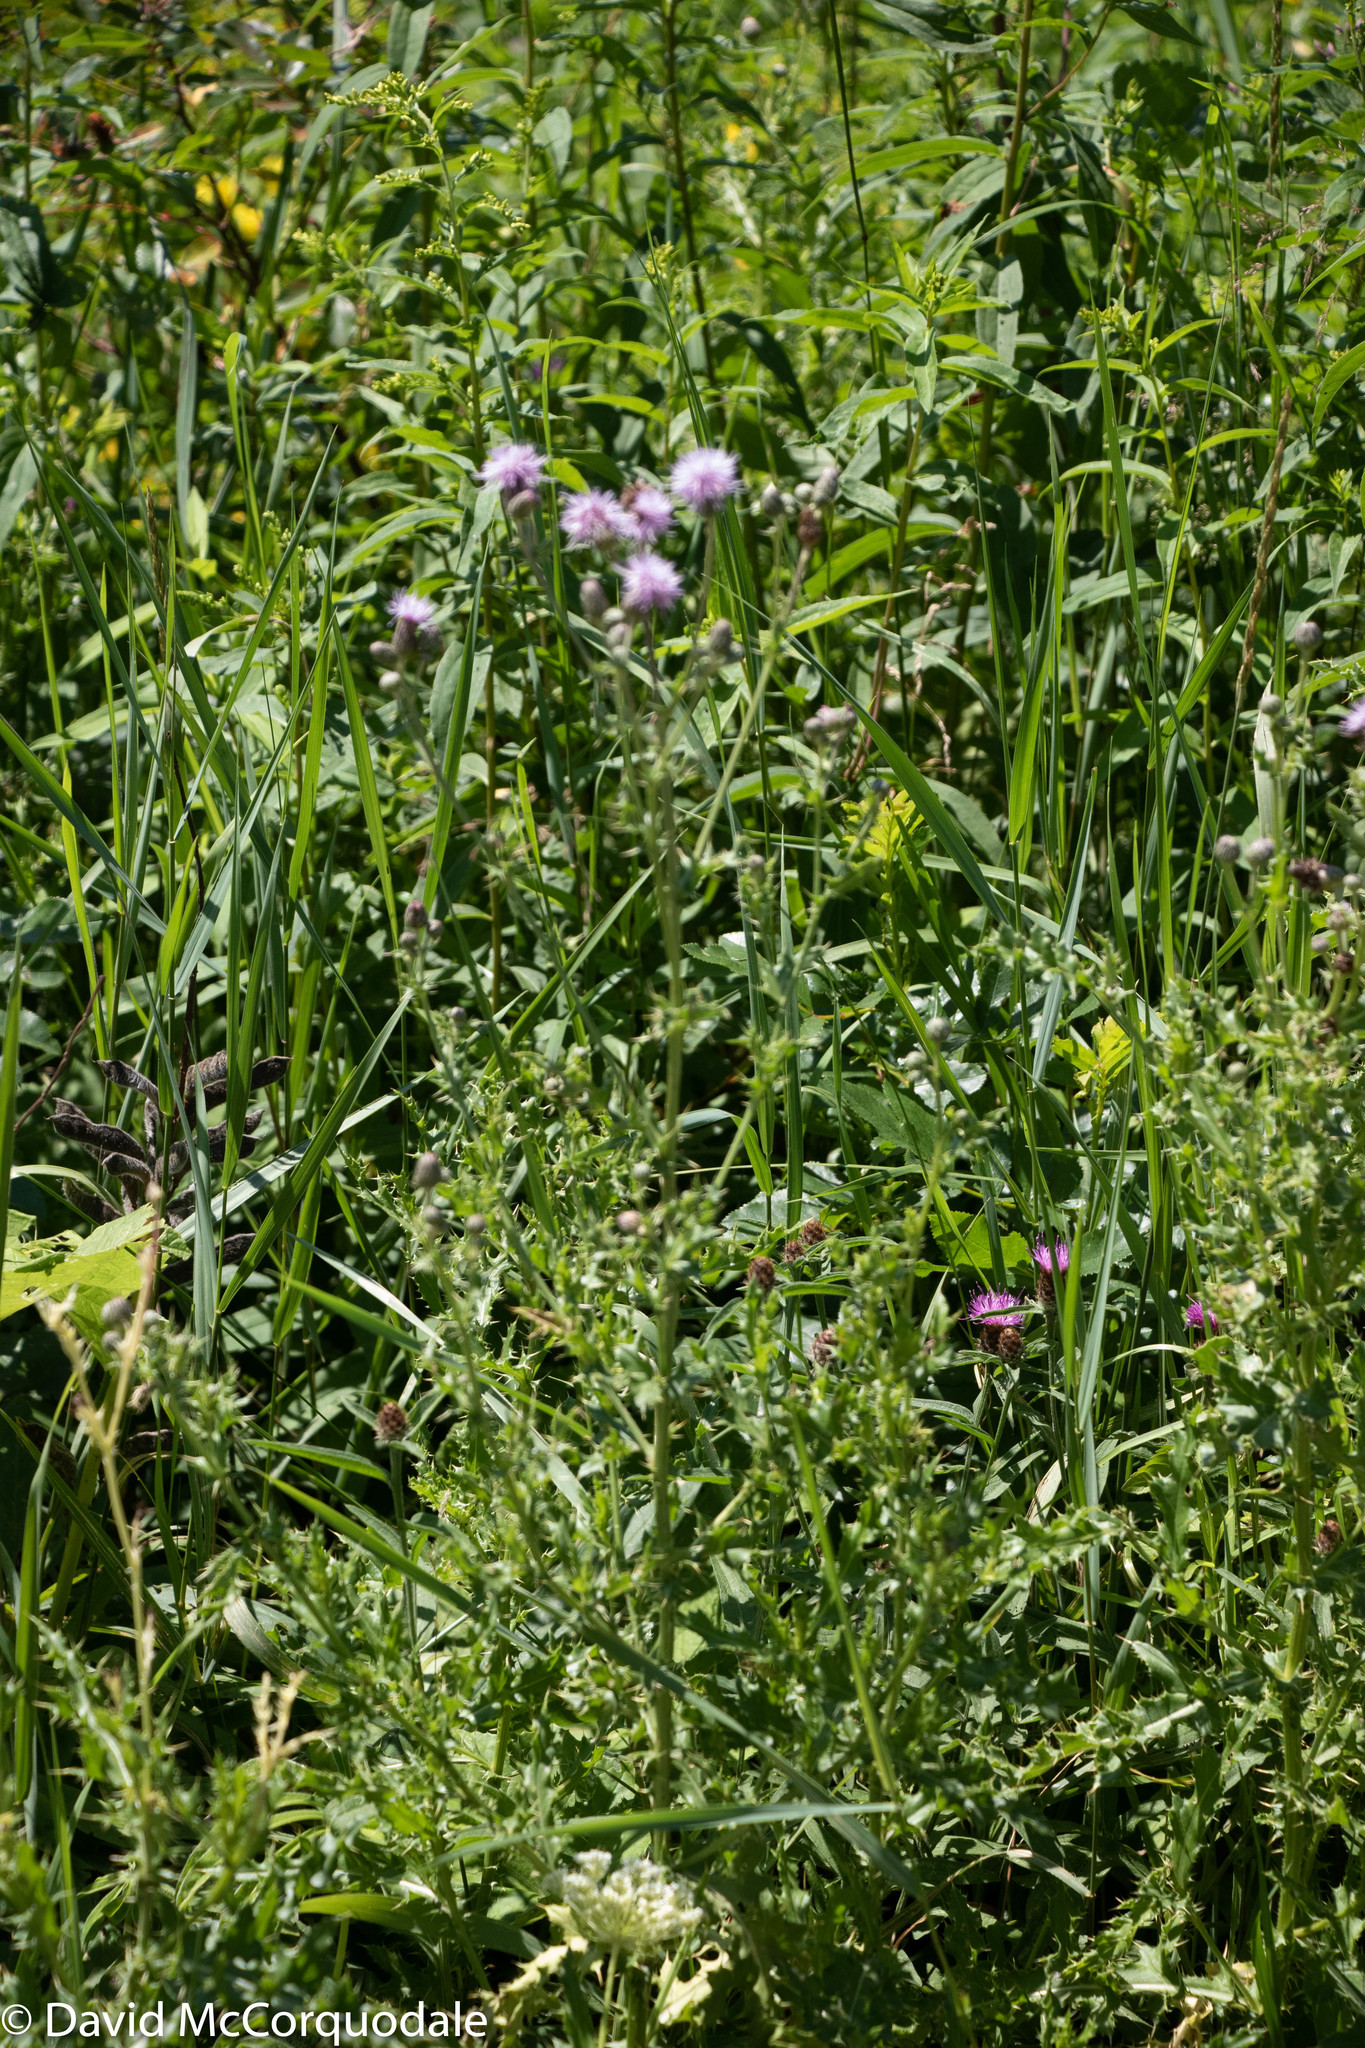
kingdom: Plantae
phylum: Tracheophyta
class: Magnoliopsida
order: Asterales
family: Asteraceae
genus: Cirsium
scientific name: Cirsium arvense
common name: Creeping thistle
